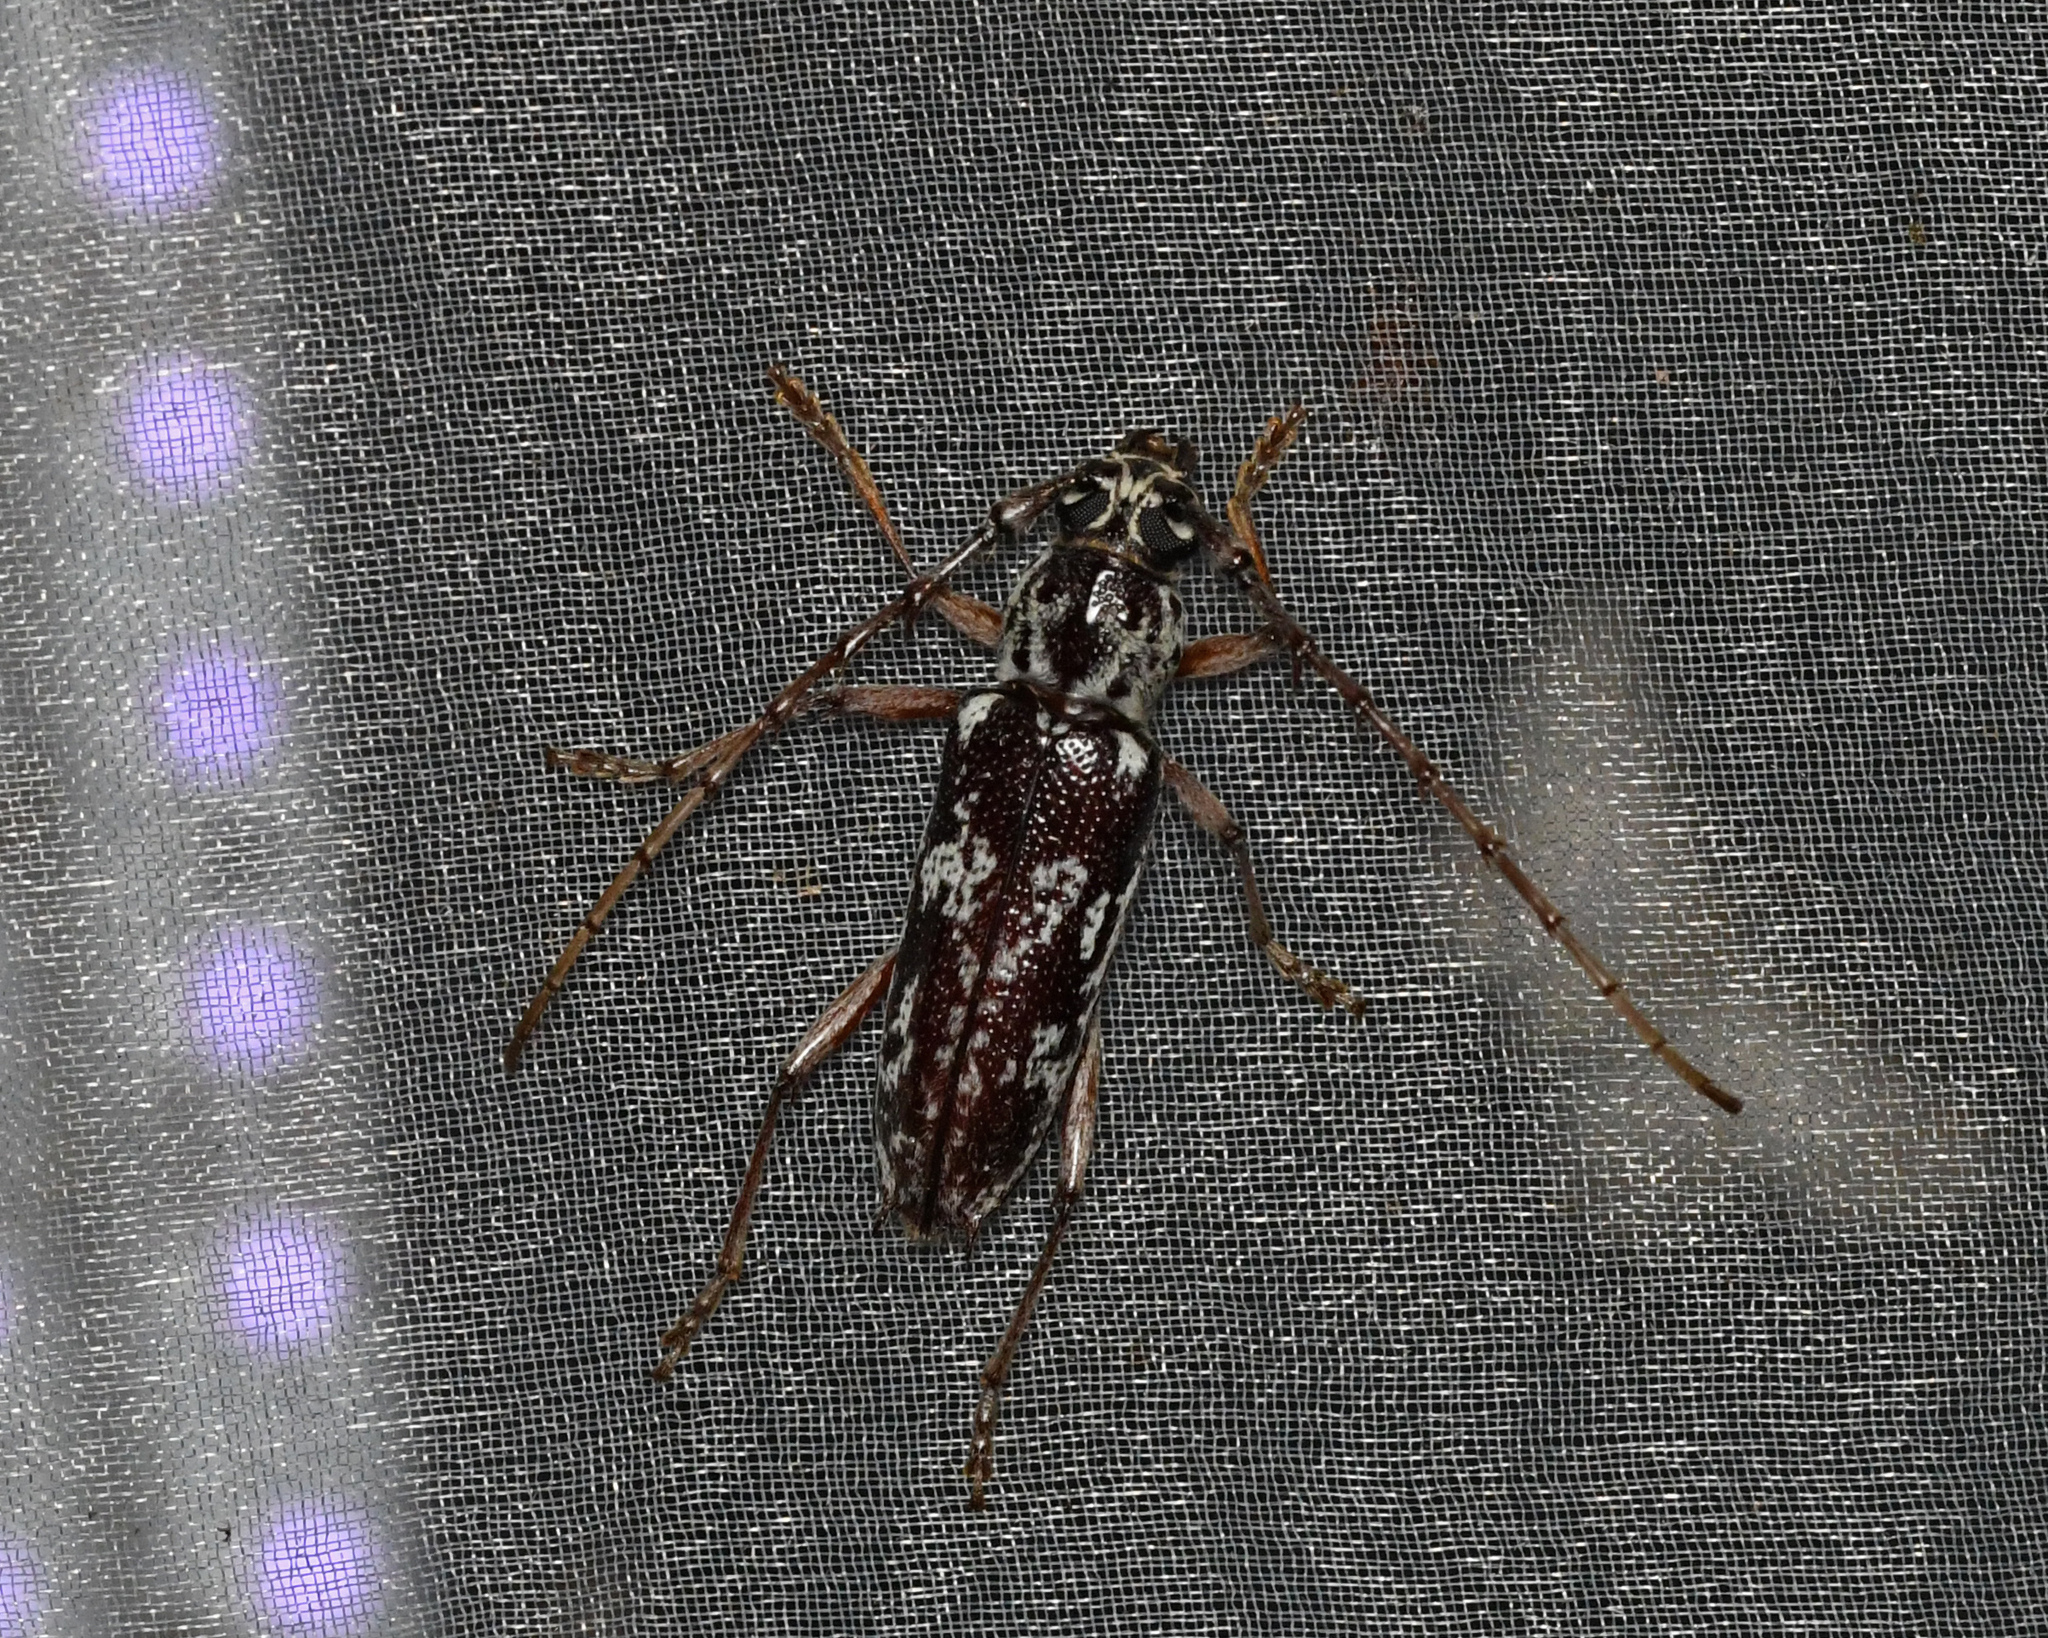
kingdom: Animalia
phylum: Arthropoda
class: Insecta
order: Coleoptera
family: Cerambycidae
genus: Elaphidion
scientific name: Elaphidion irroratum
